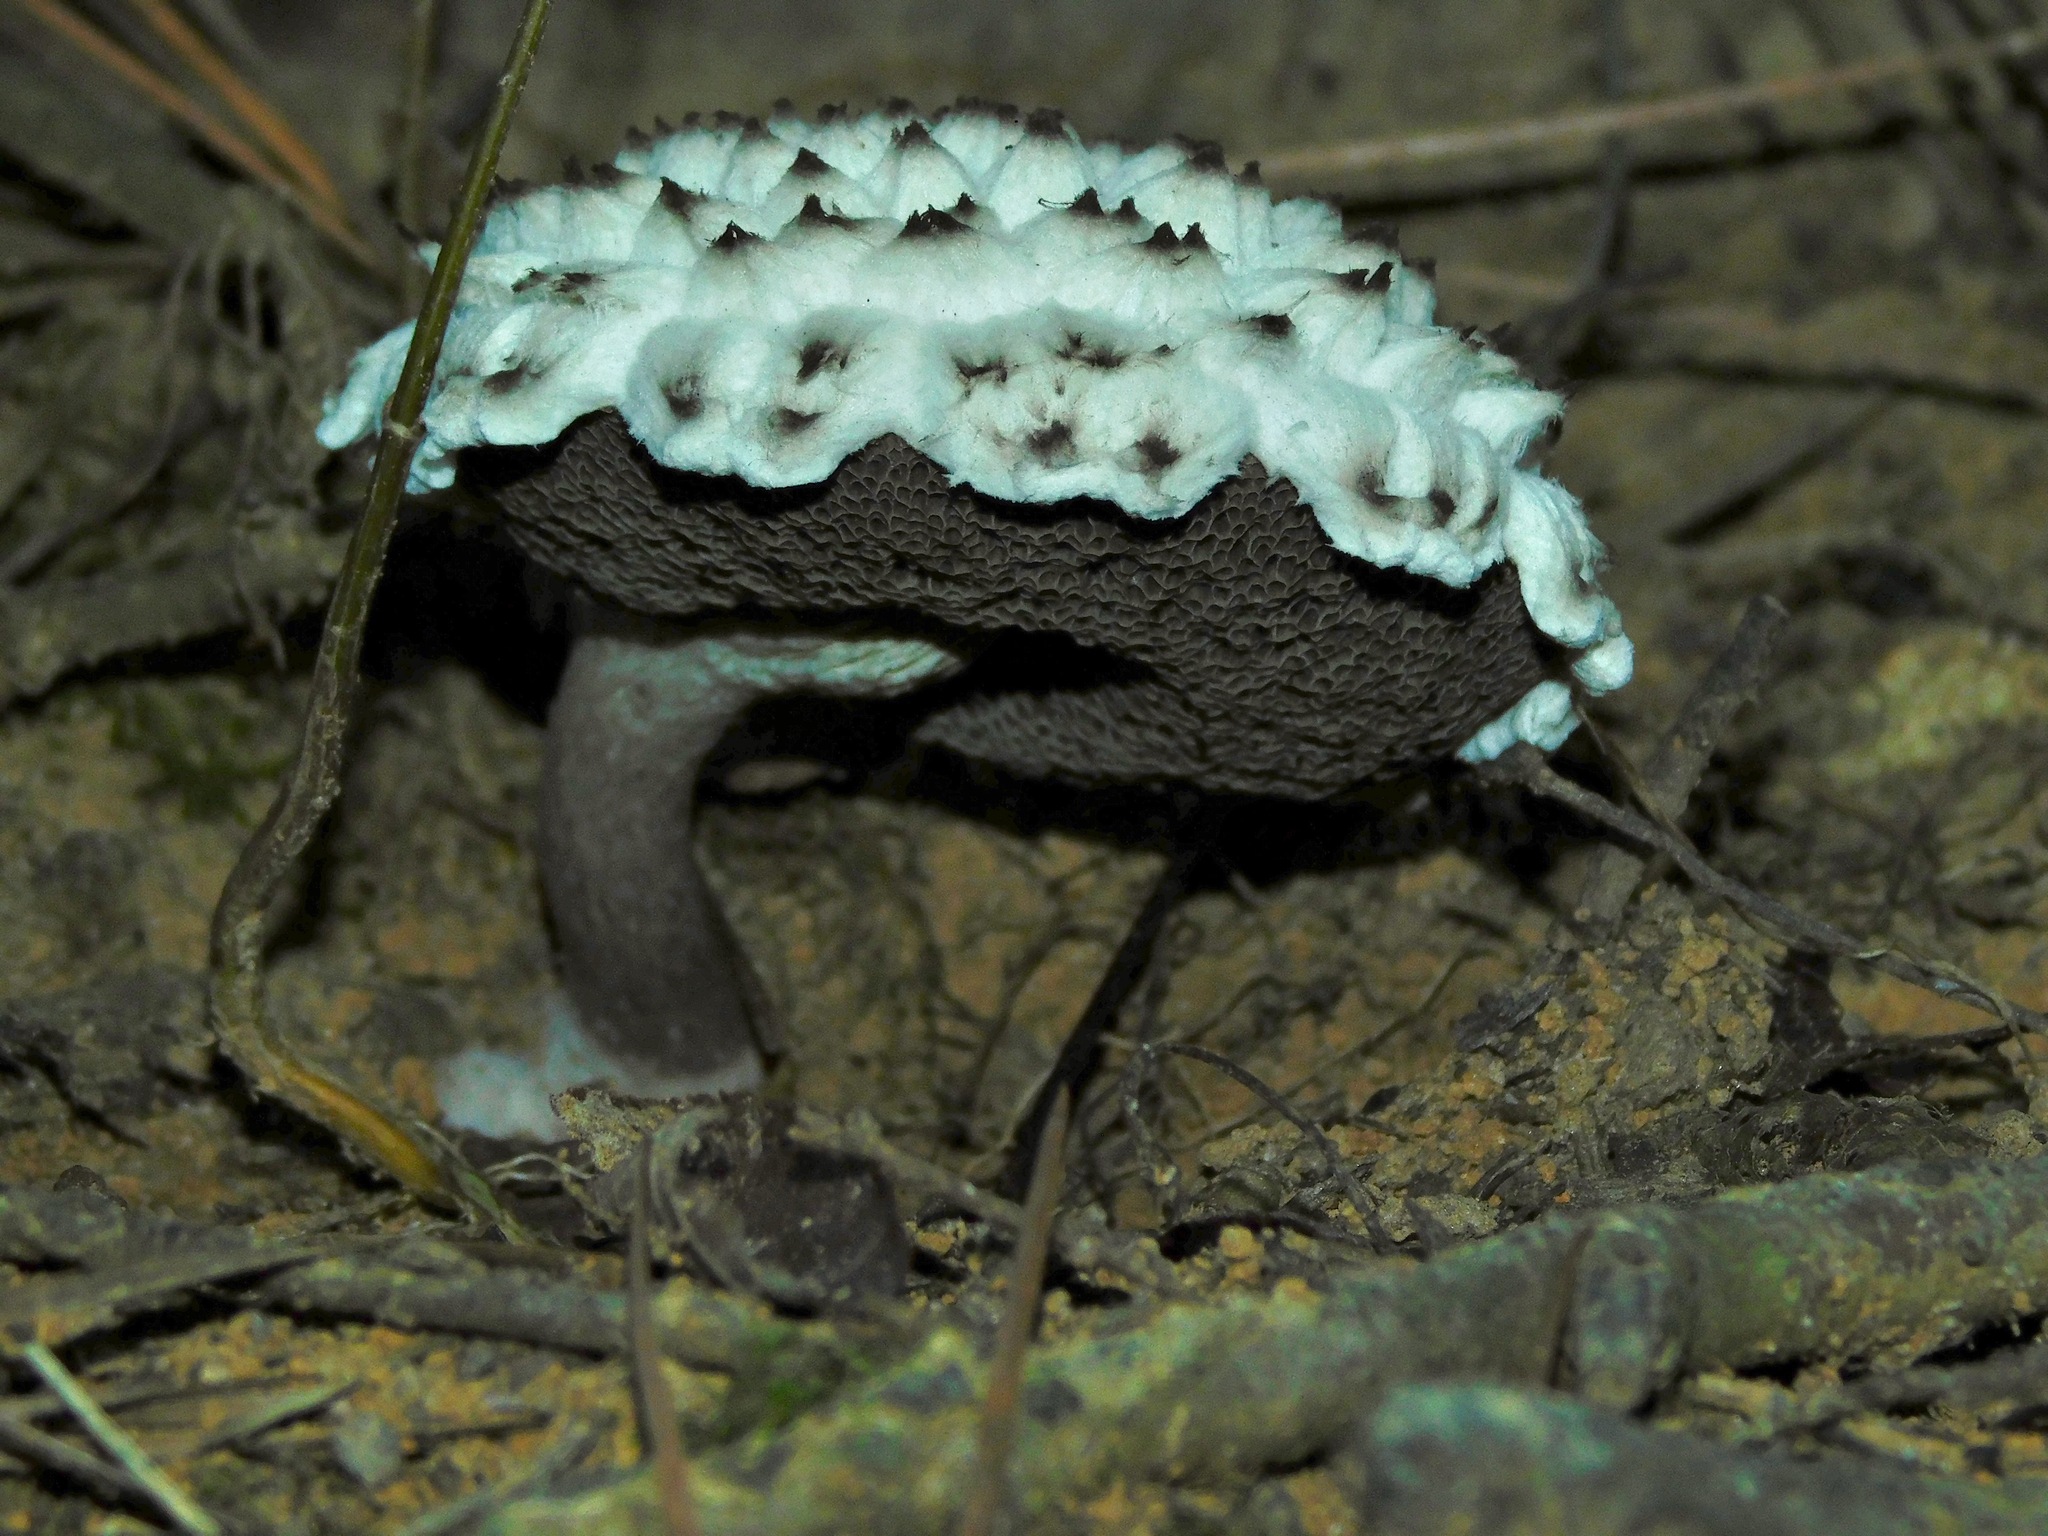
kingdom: Fungi
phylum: Basidiomycota
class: Agaricomycetes
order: Boletales
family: Boletaceae
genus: Strobilomyces
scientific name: Strobilomyces strobilaceus
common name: Old man of the woods
